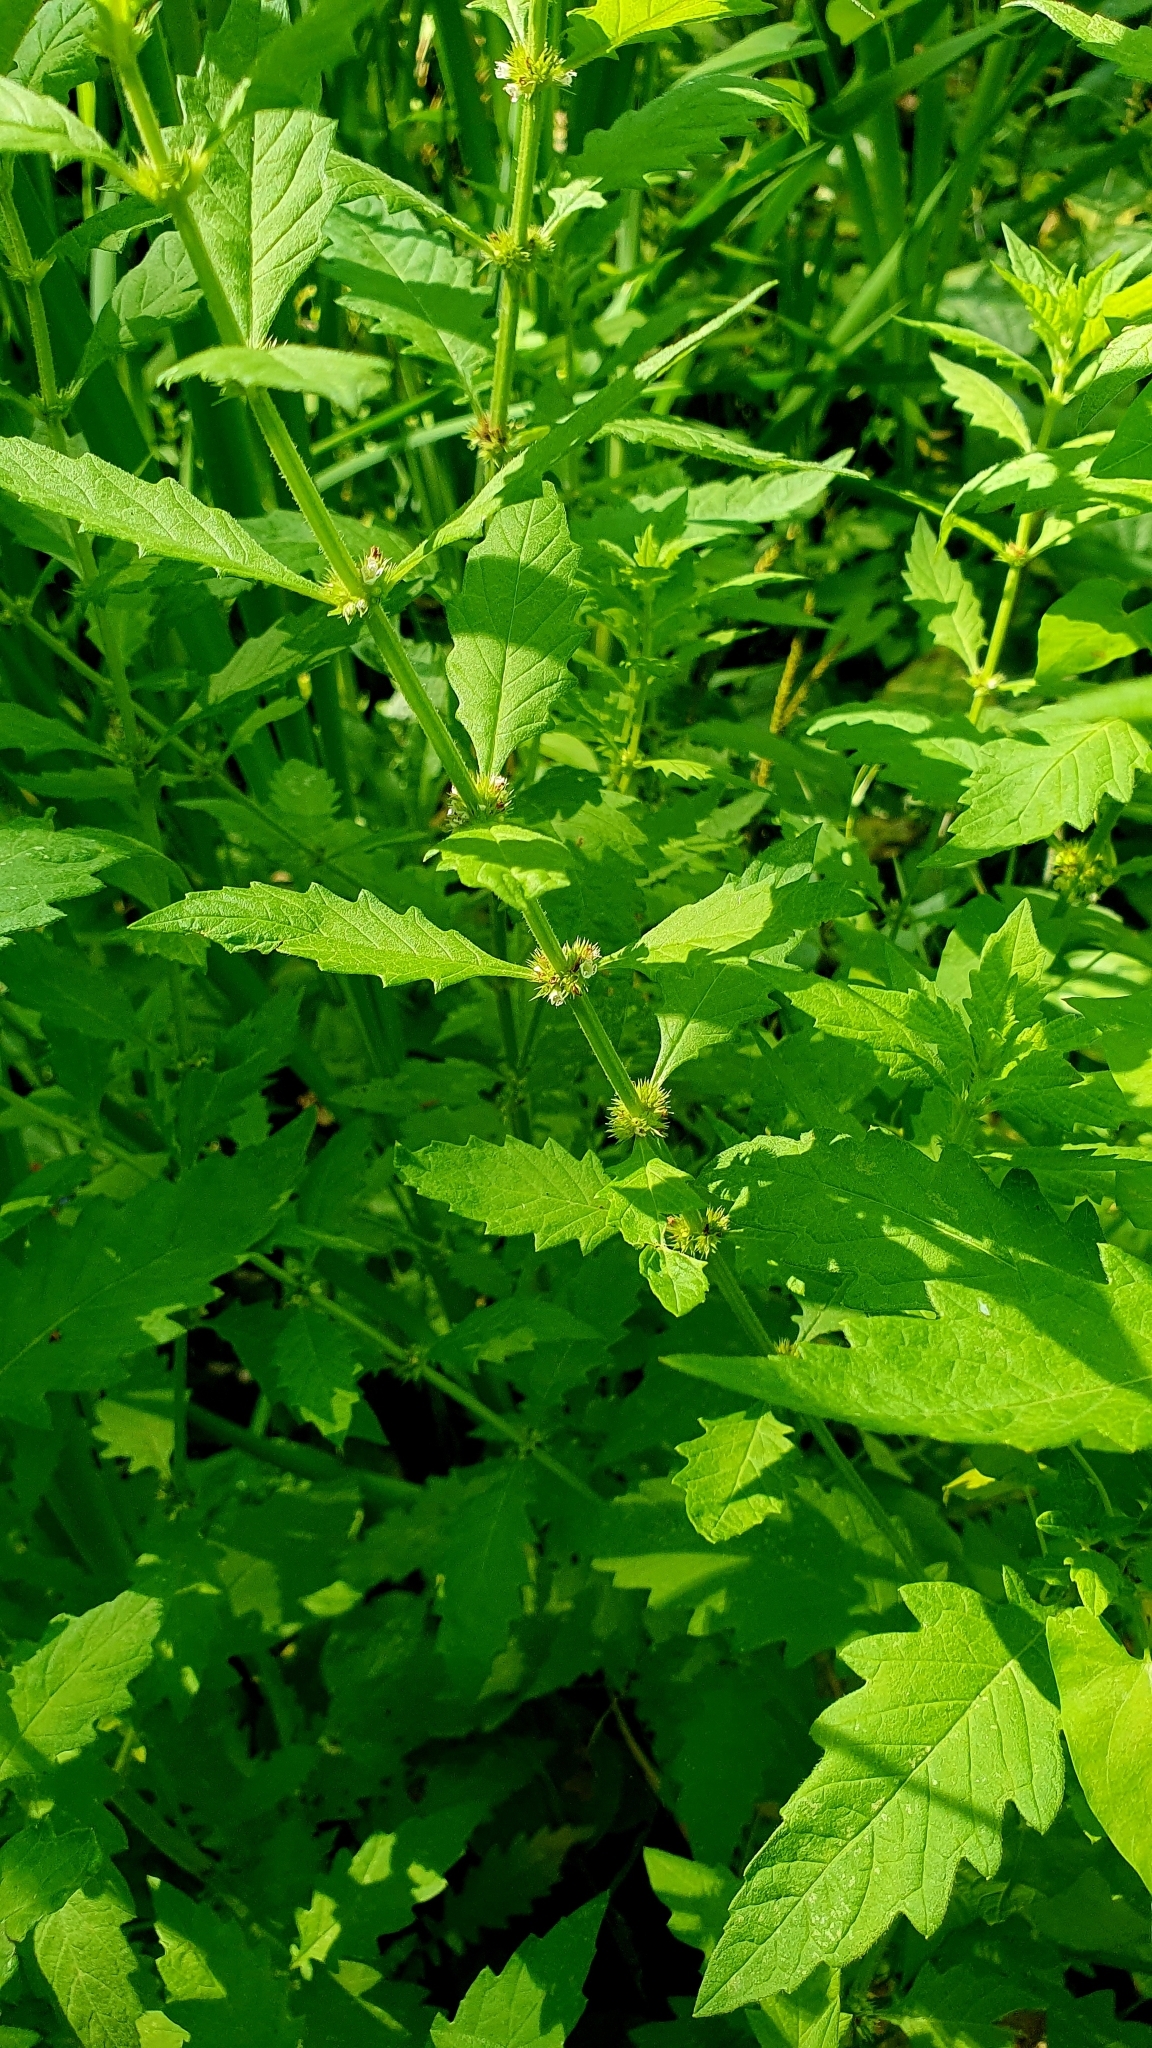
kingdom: Plantae
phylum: Tracheophyta
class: Magnoliopsida
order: Lamiales
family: Lamiaceae
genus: Lycopus
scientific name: Lycopus europaeus
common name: European bugleweed
